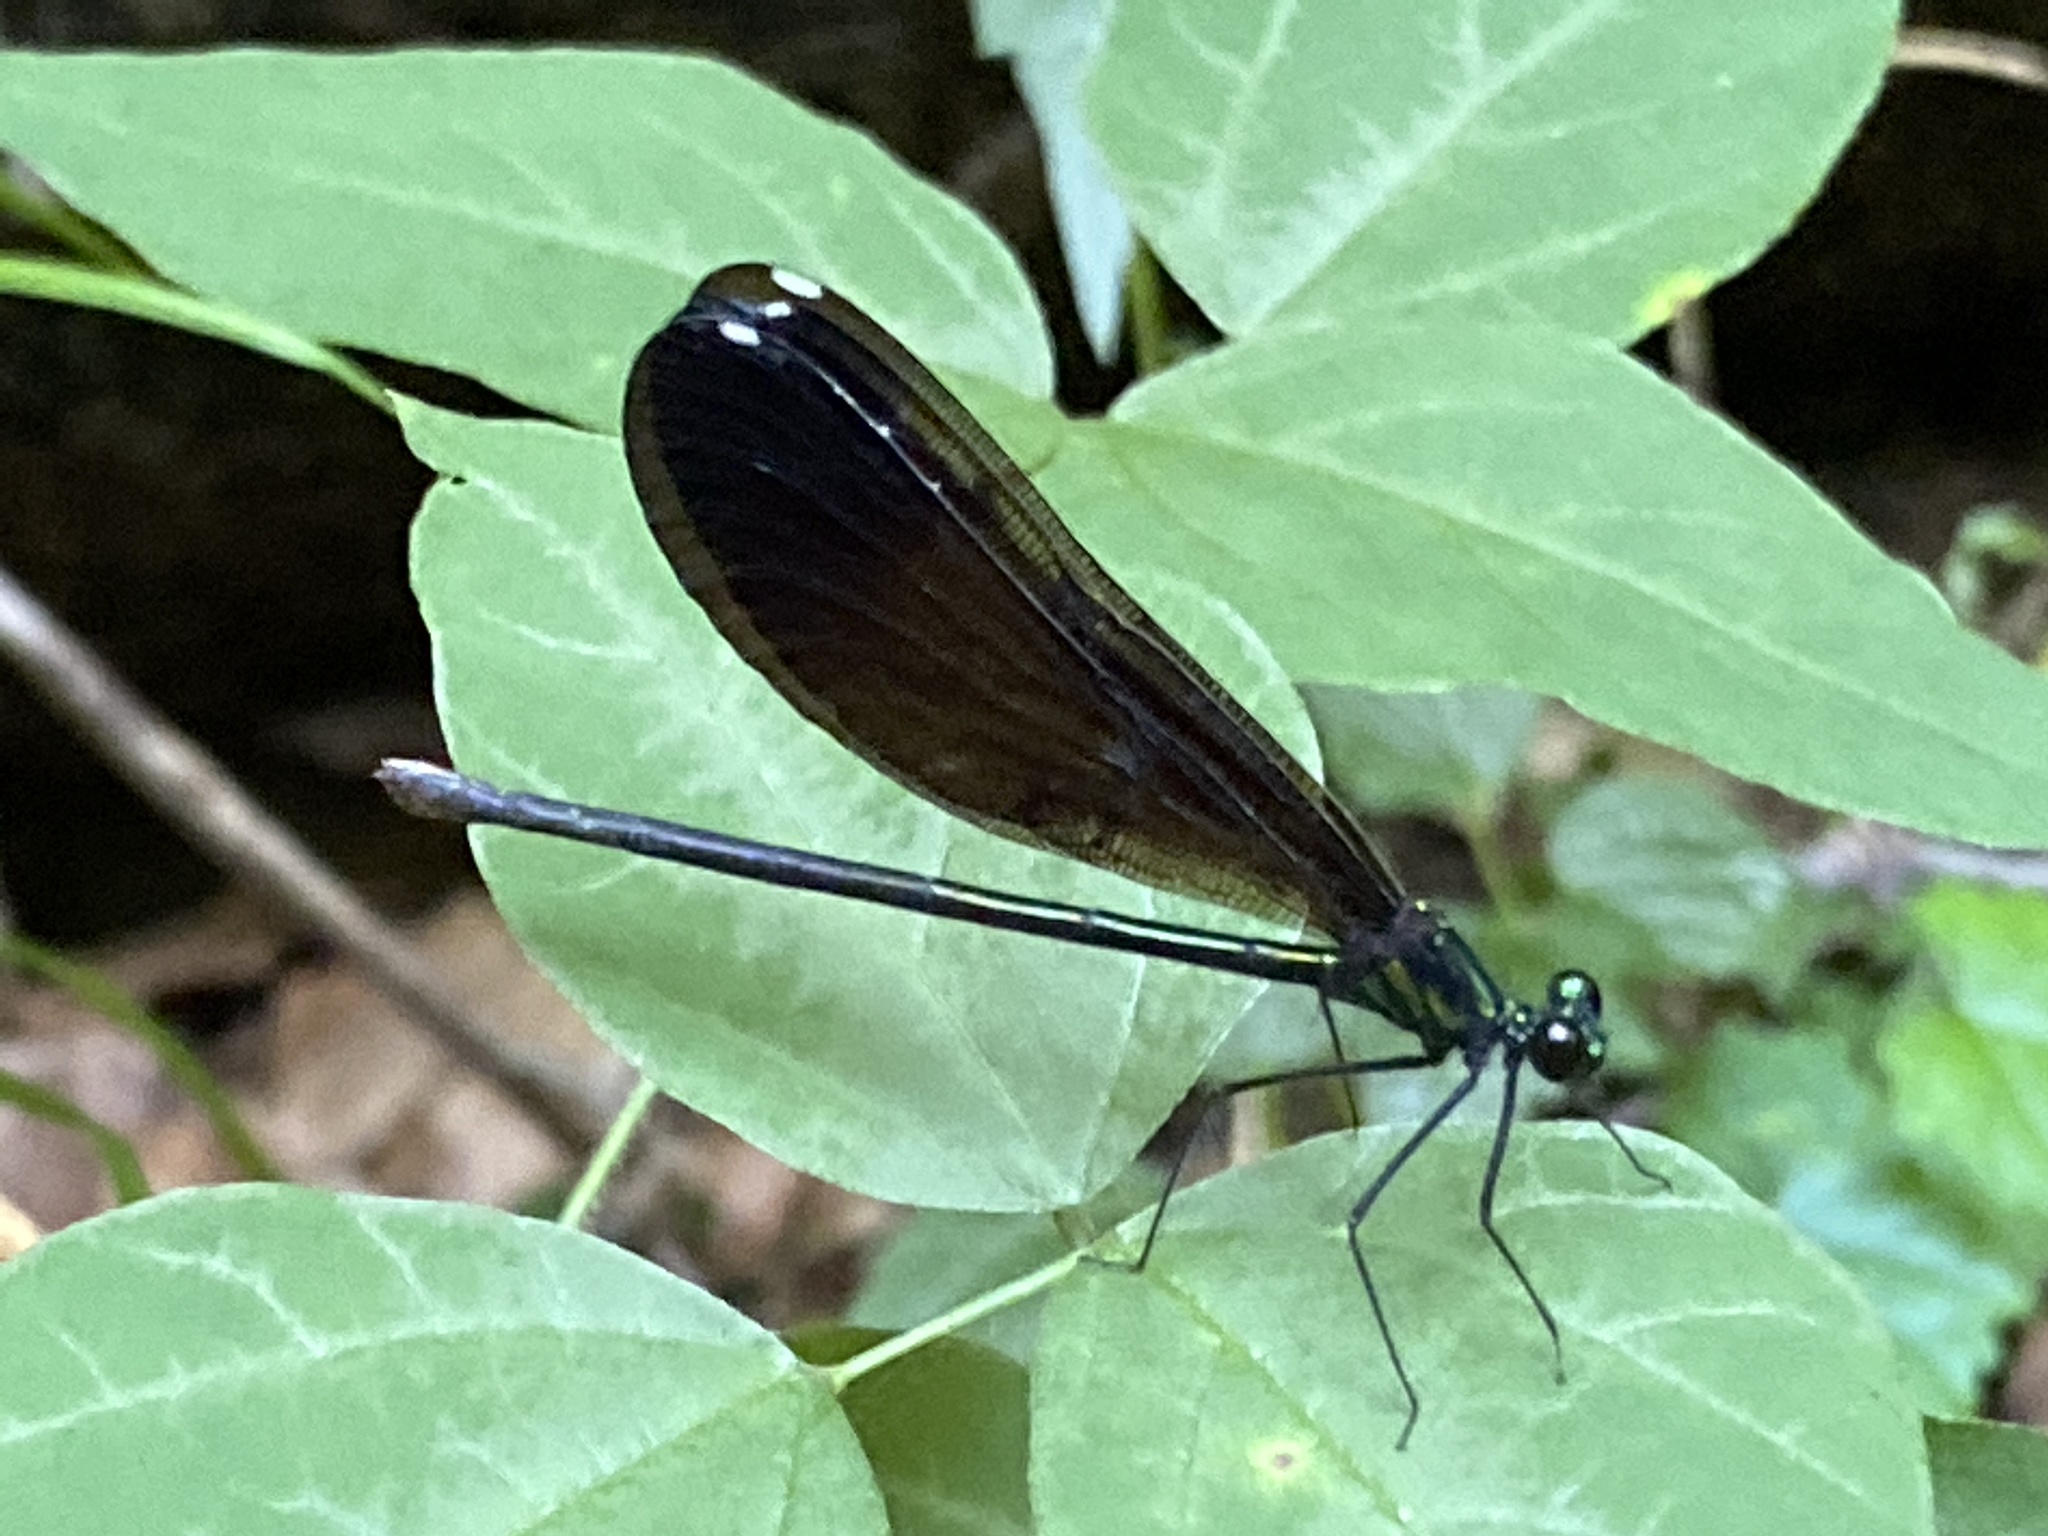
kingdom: Animalia
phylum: Arthropoda
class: Insecta
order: Odonata
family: Calopterygidae
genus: Calopteryx
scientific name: Calopteryx maculata
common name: Ebony jewelwing
